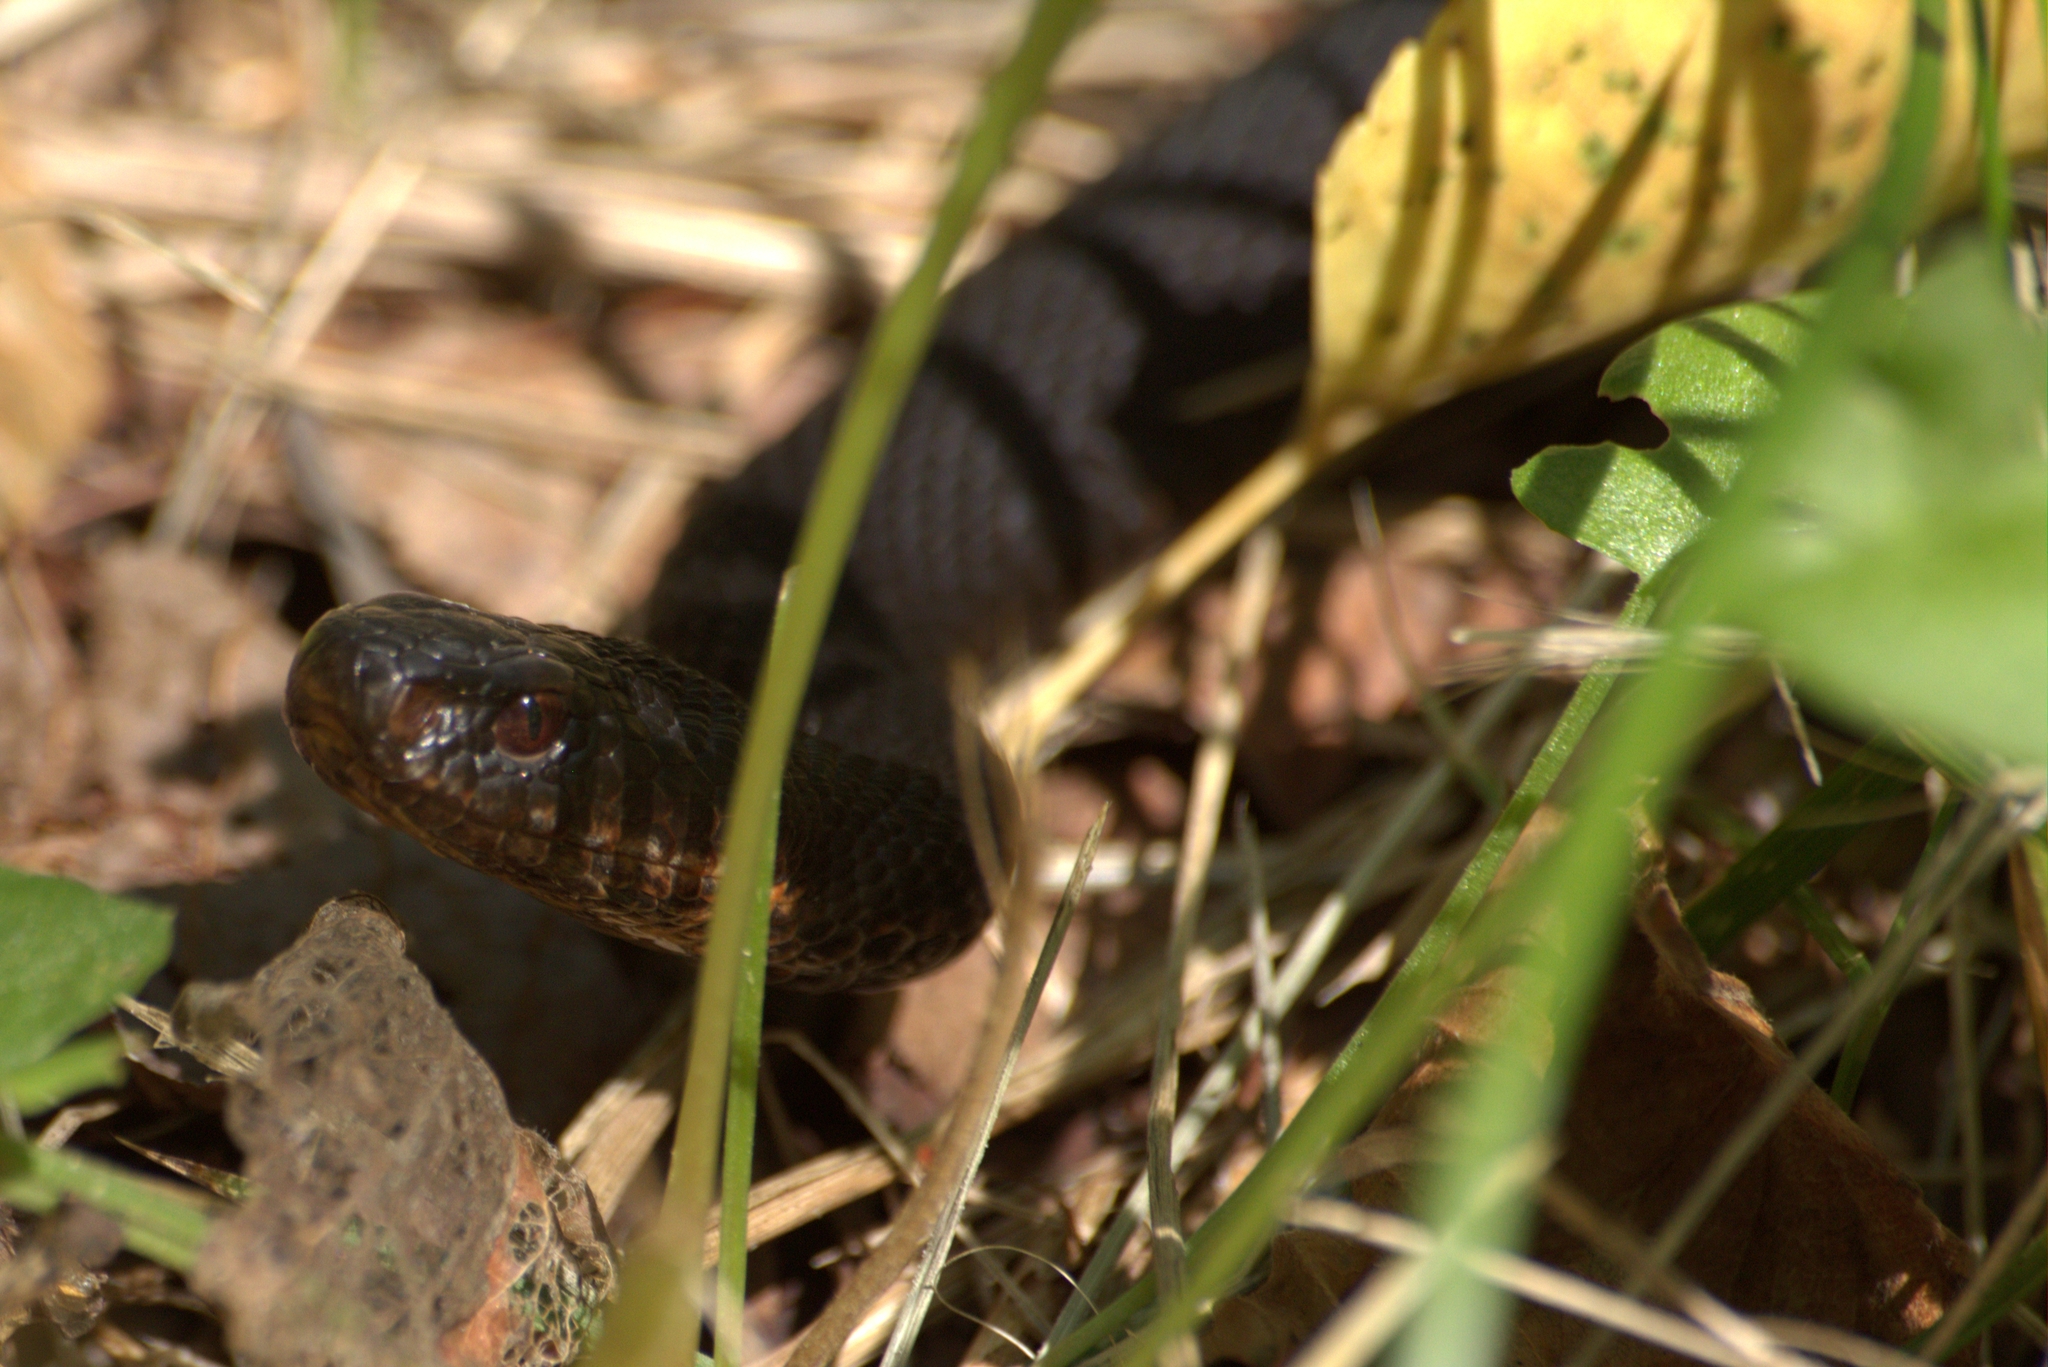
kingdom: Animalia
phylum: Chordata
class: Squamata
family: Viperidae
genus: Vipera
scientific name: Vipera berus
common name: Adder
